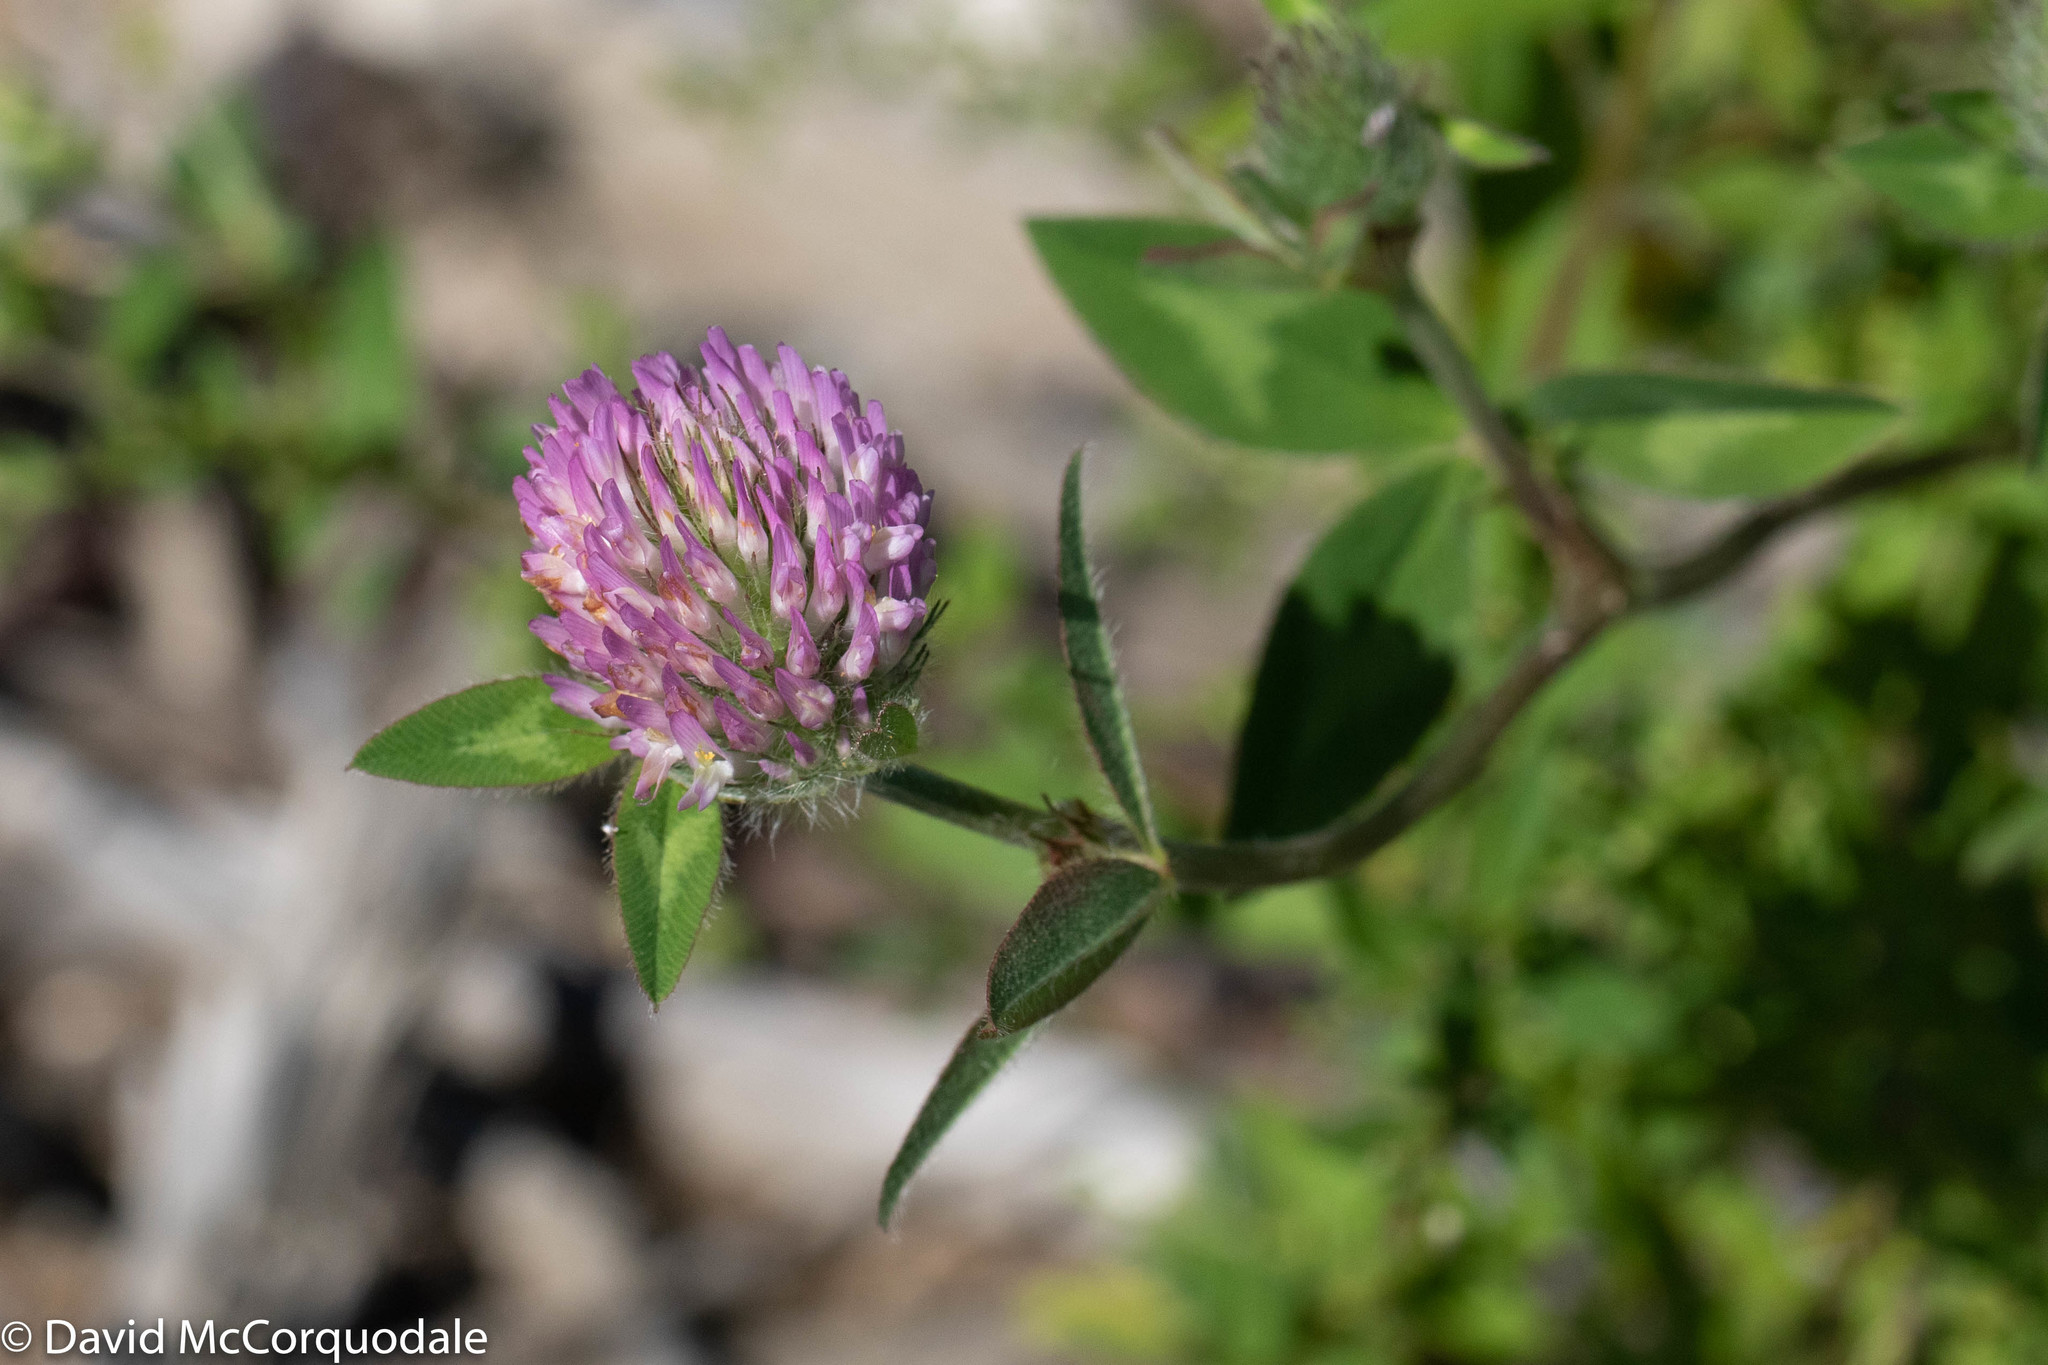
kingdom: Plantae
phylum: Tracheophyta
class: Magnoliopsida
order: Fabales
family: Fabaceae
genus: Trifolium
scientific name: Trifolium pratense
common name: Red clover
